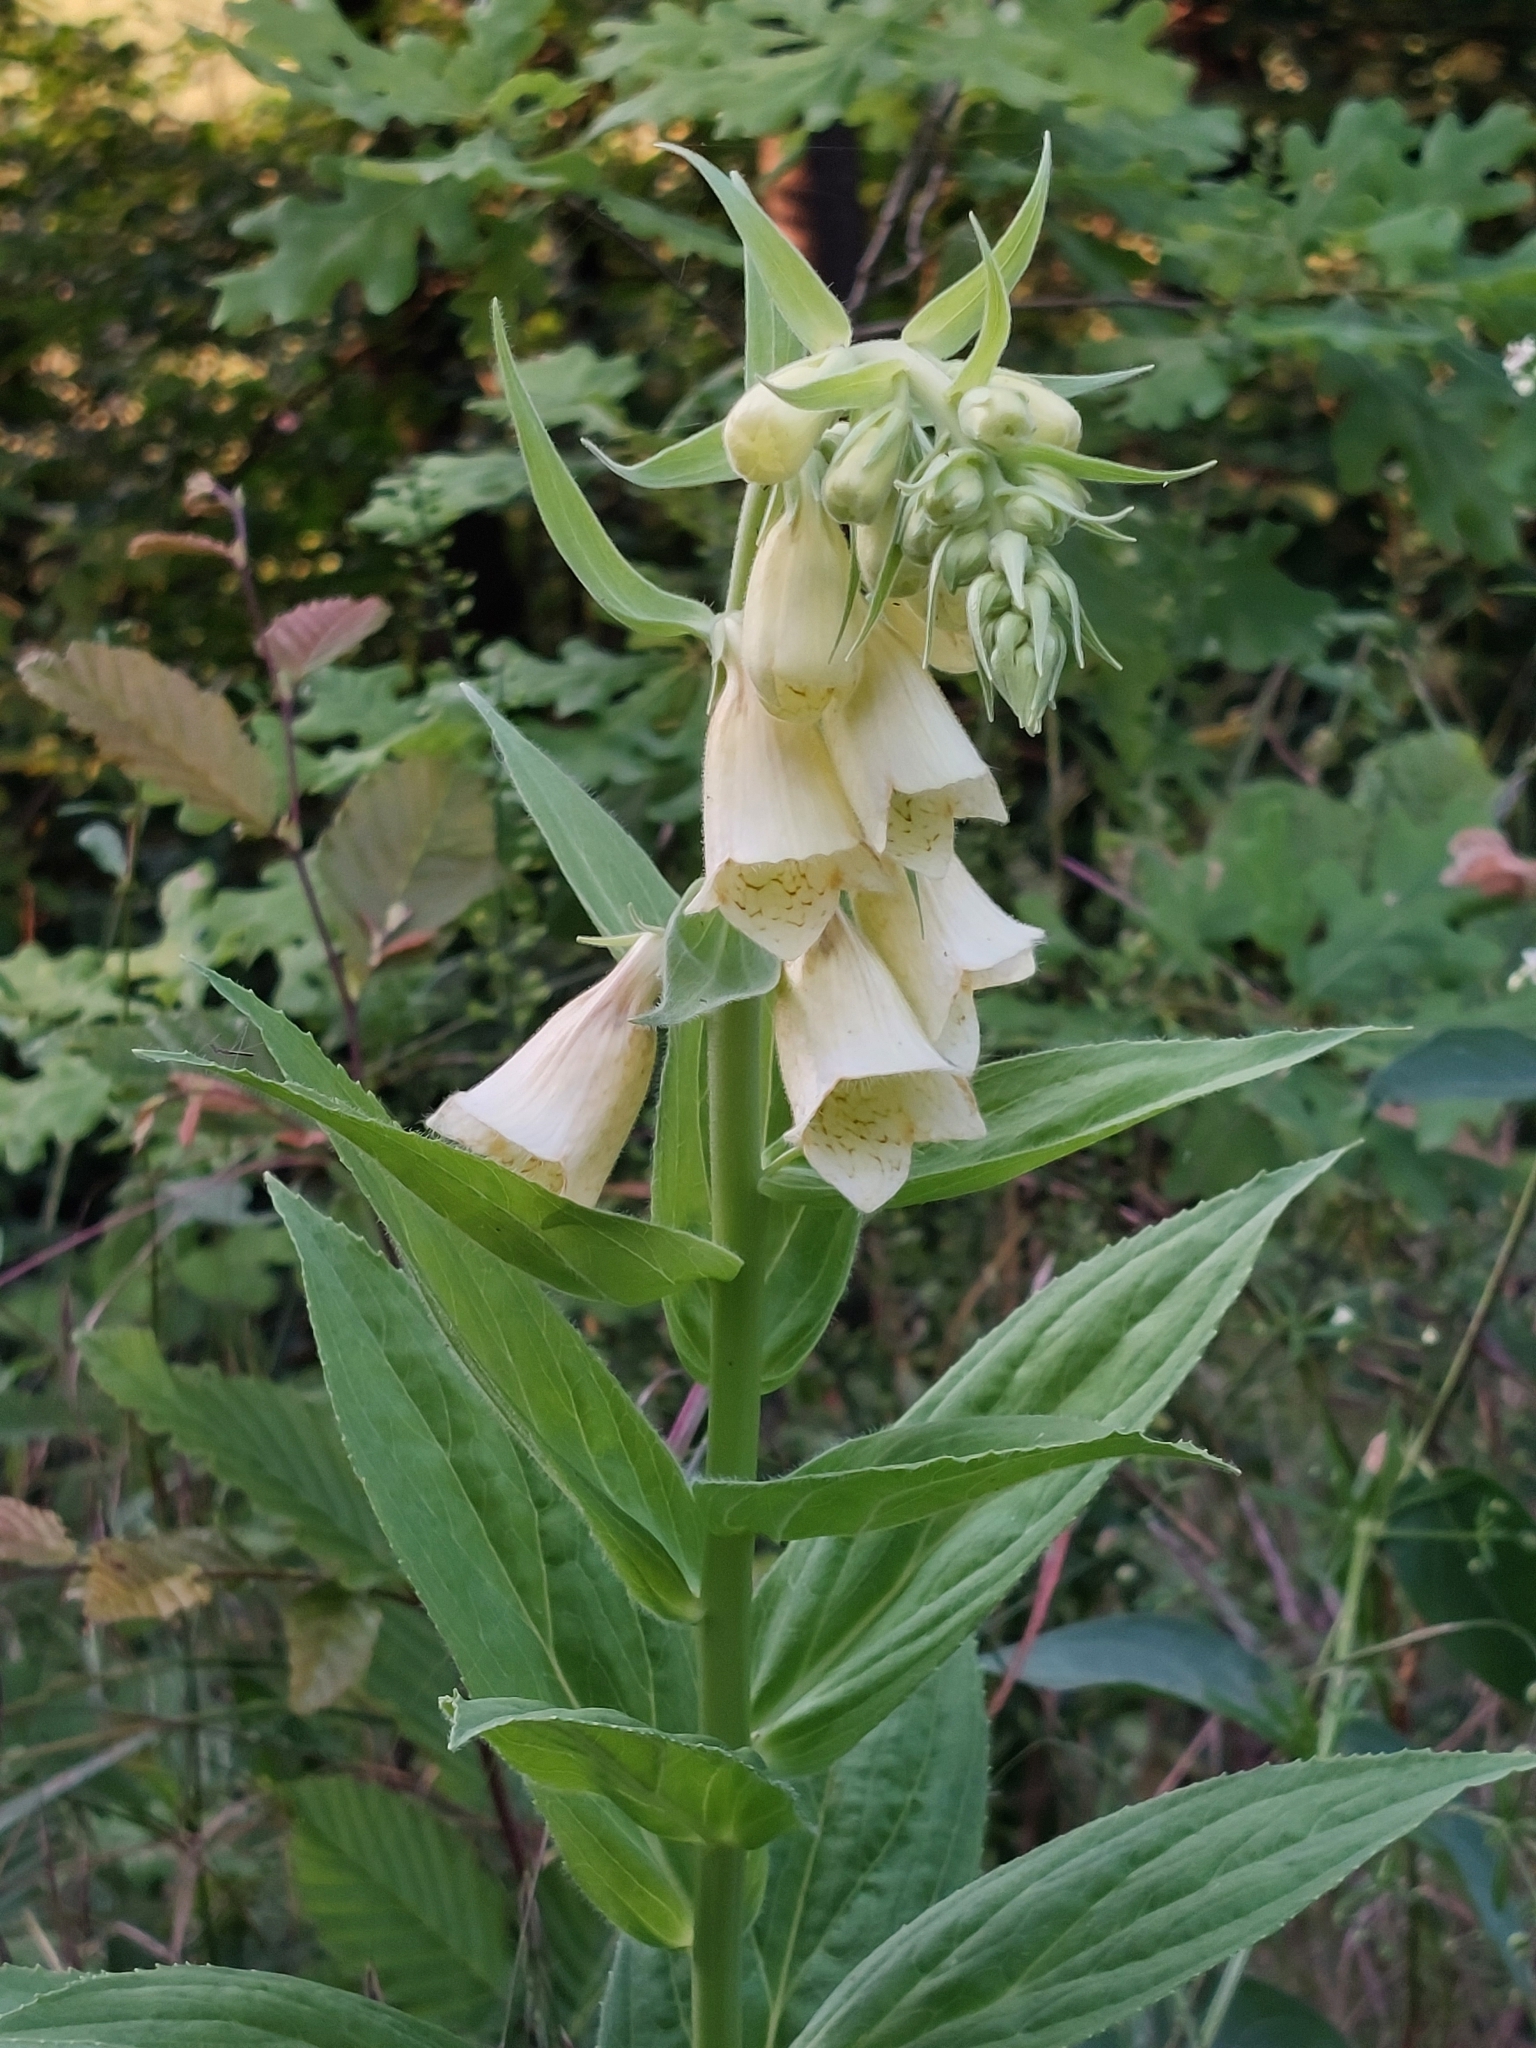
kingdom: Plantae
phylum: Tracheophyta
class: Magnoliopsida
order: Lamiales
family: Plantaginaceae
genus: Digitalis
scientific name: Digitalis grandiflora
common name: Yellow foxglove
